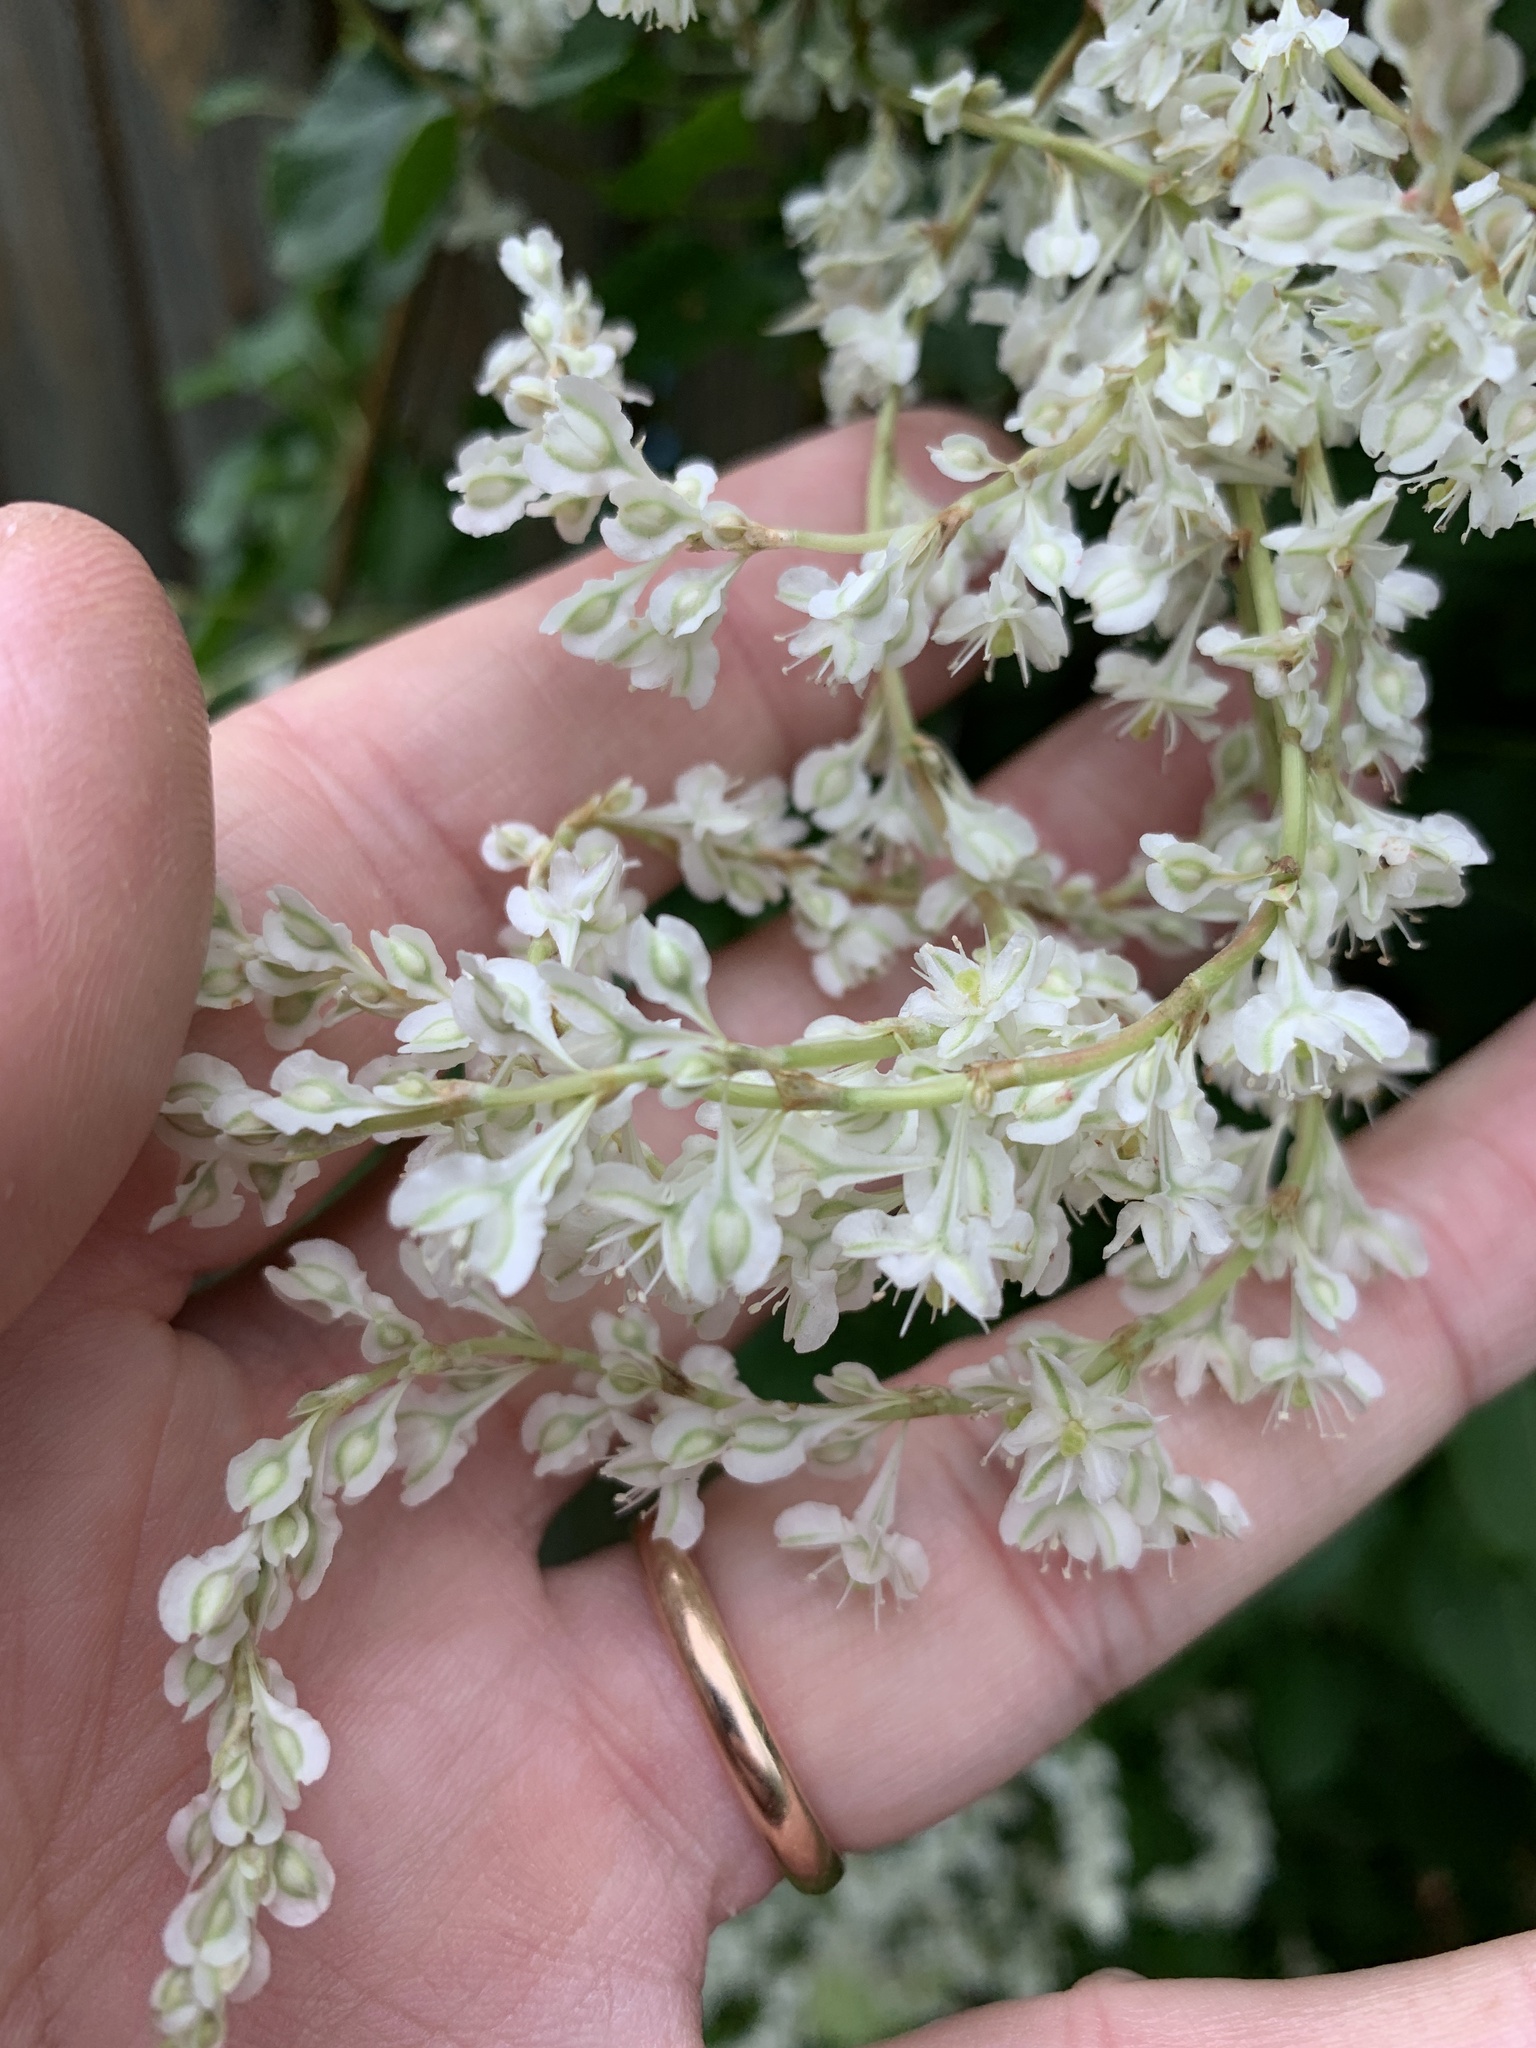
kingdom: Plantae
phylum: Tracheophyta
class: Magnoliopsida
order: Caryophyllales
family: Polygonaceae
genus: Fallopia
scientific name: Fallopia baldschuanica
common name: Russian-vine
